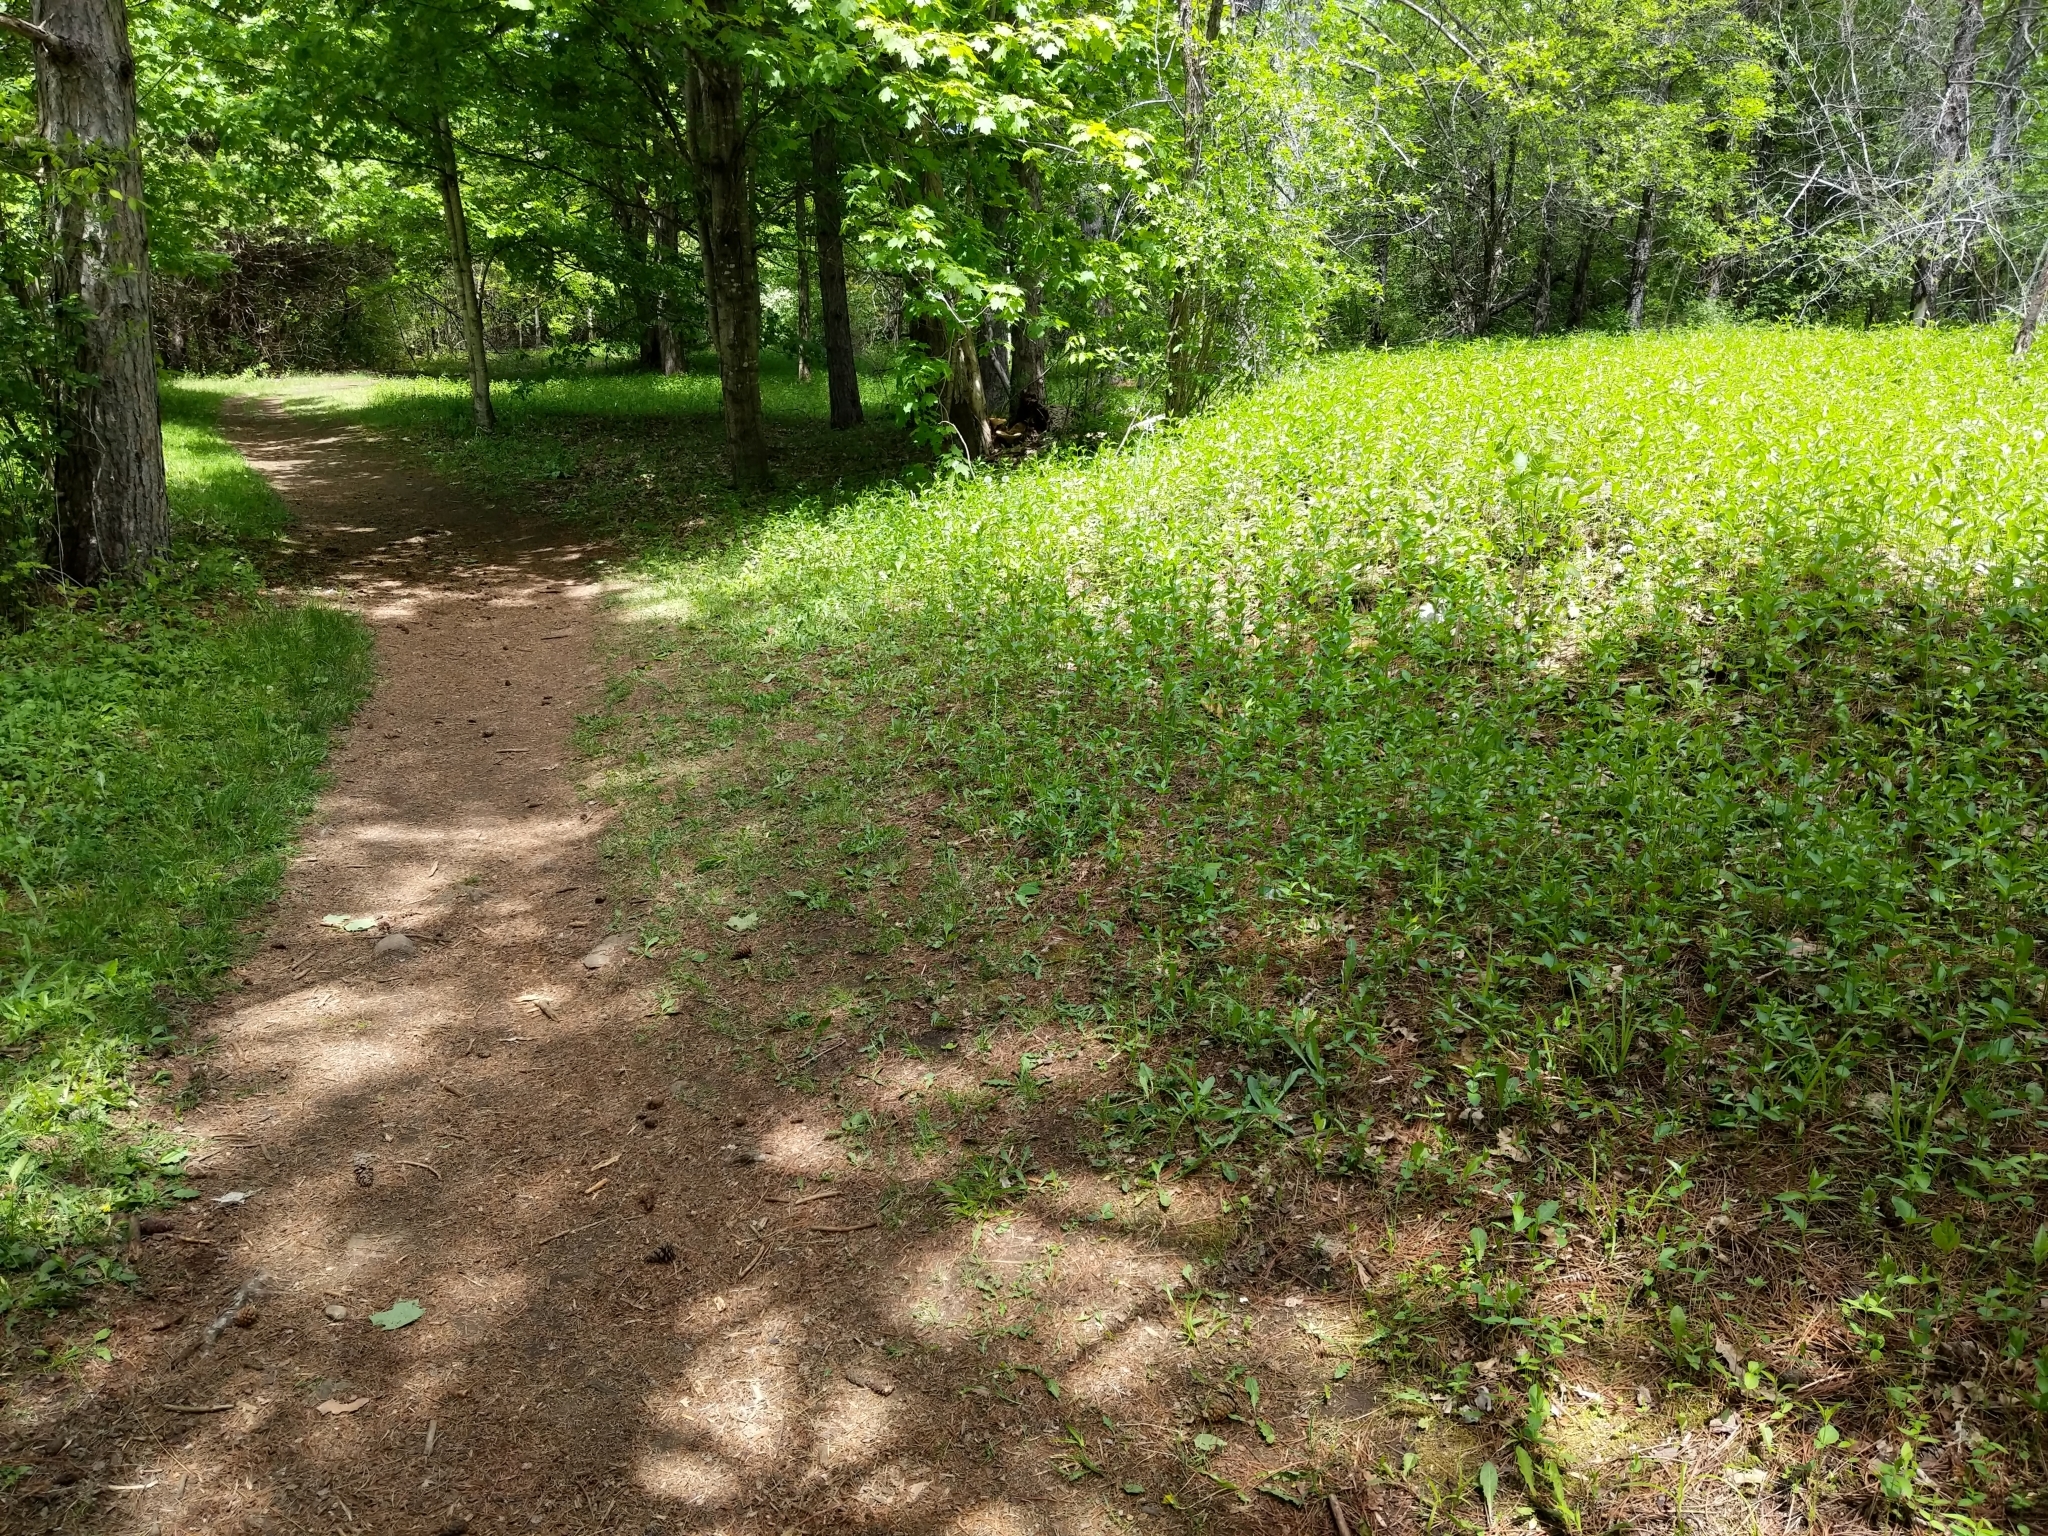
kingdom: Plantae
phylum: Tracheophyta
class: Magnoliopsida
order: Gentianales
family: Apocynaceae
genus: Vincetoxicum
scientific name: Vincetoxicum rossicum
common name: Dog-strangling vine
